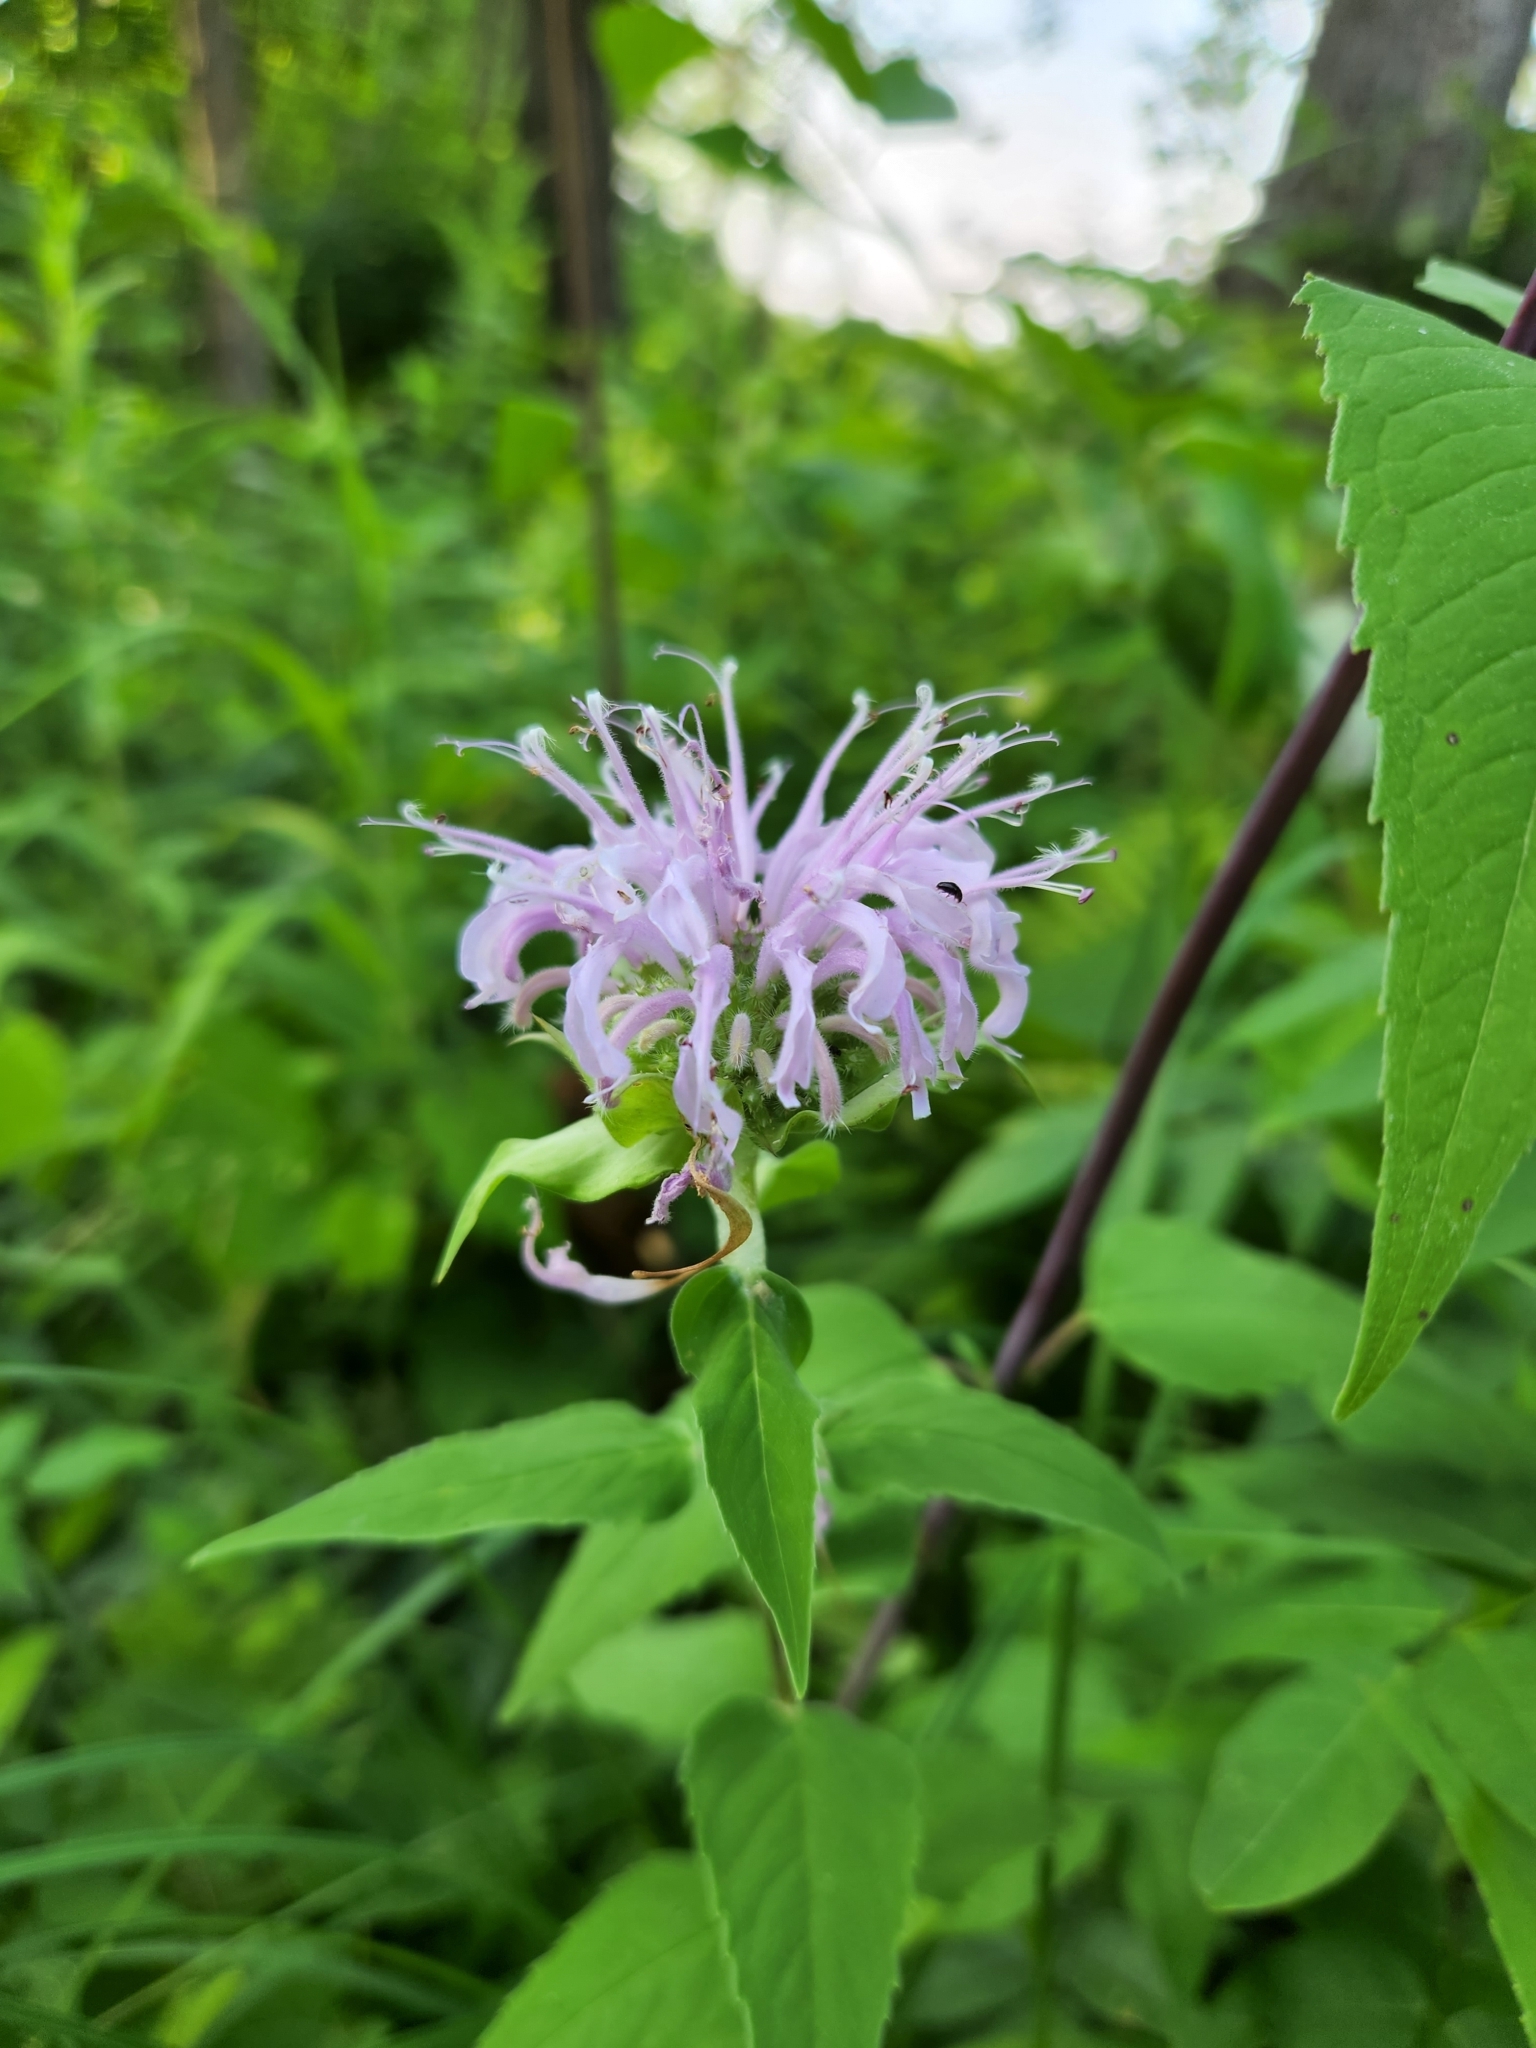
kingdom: Plantae
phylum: Tracheophyta
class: Magnoliopsida
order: Lamiales
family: Lamiaceae
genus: Monarda
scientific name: Monarda fistulosa
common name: Purple beebalm
